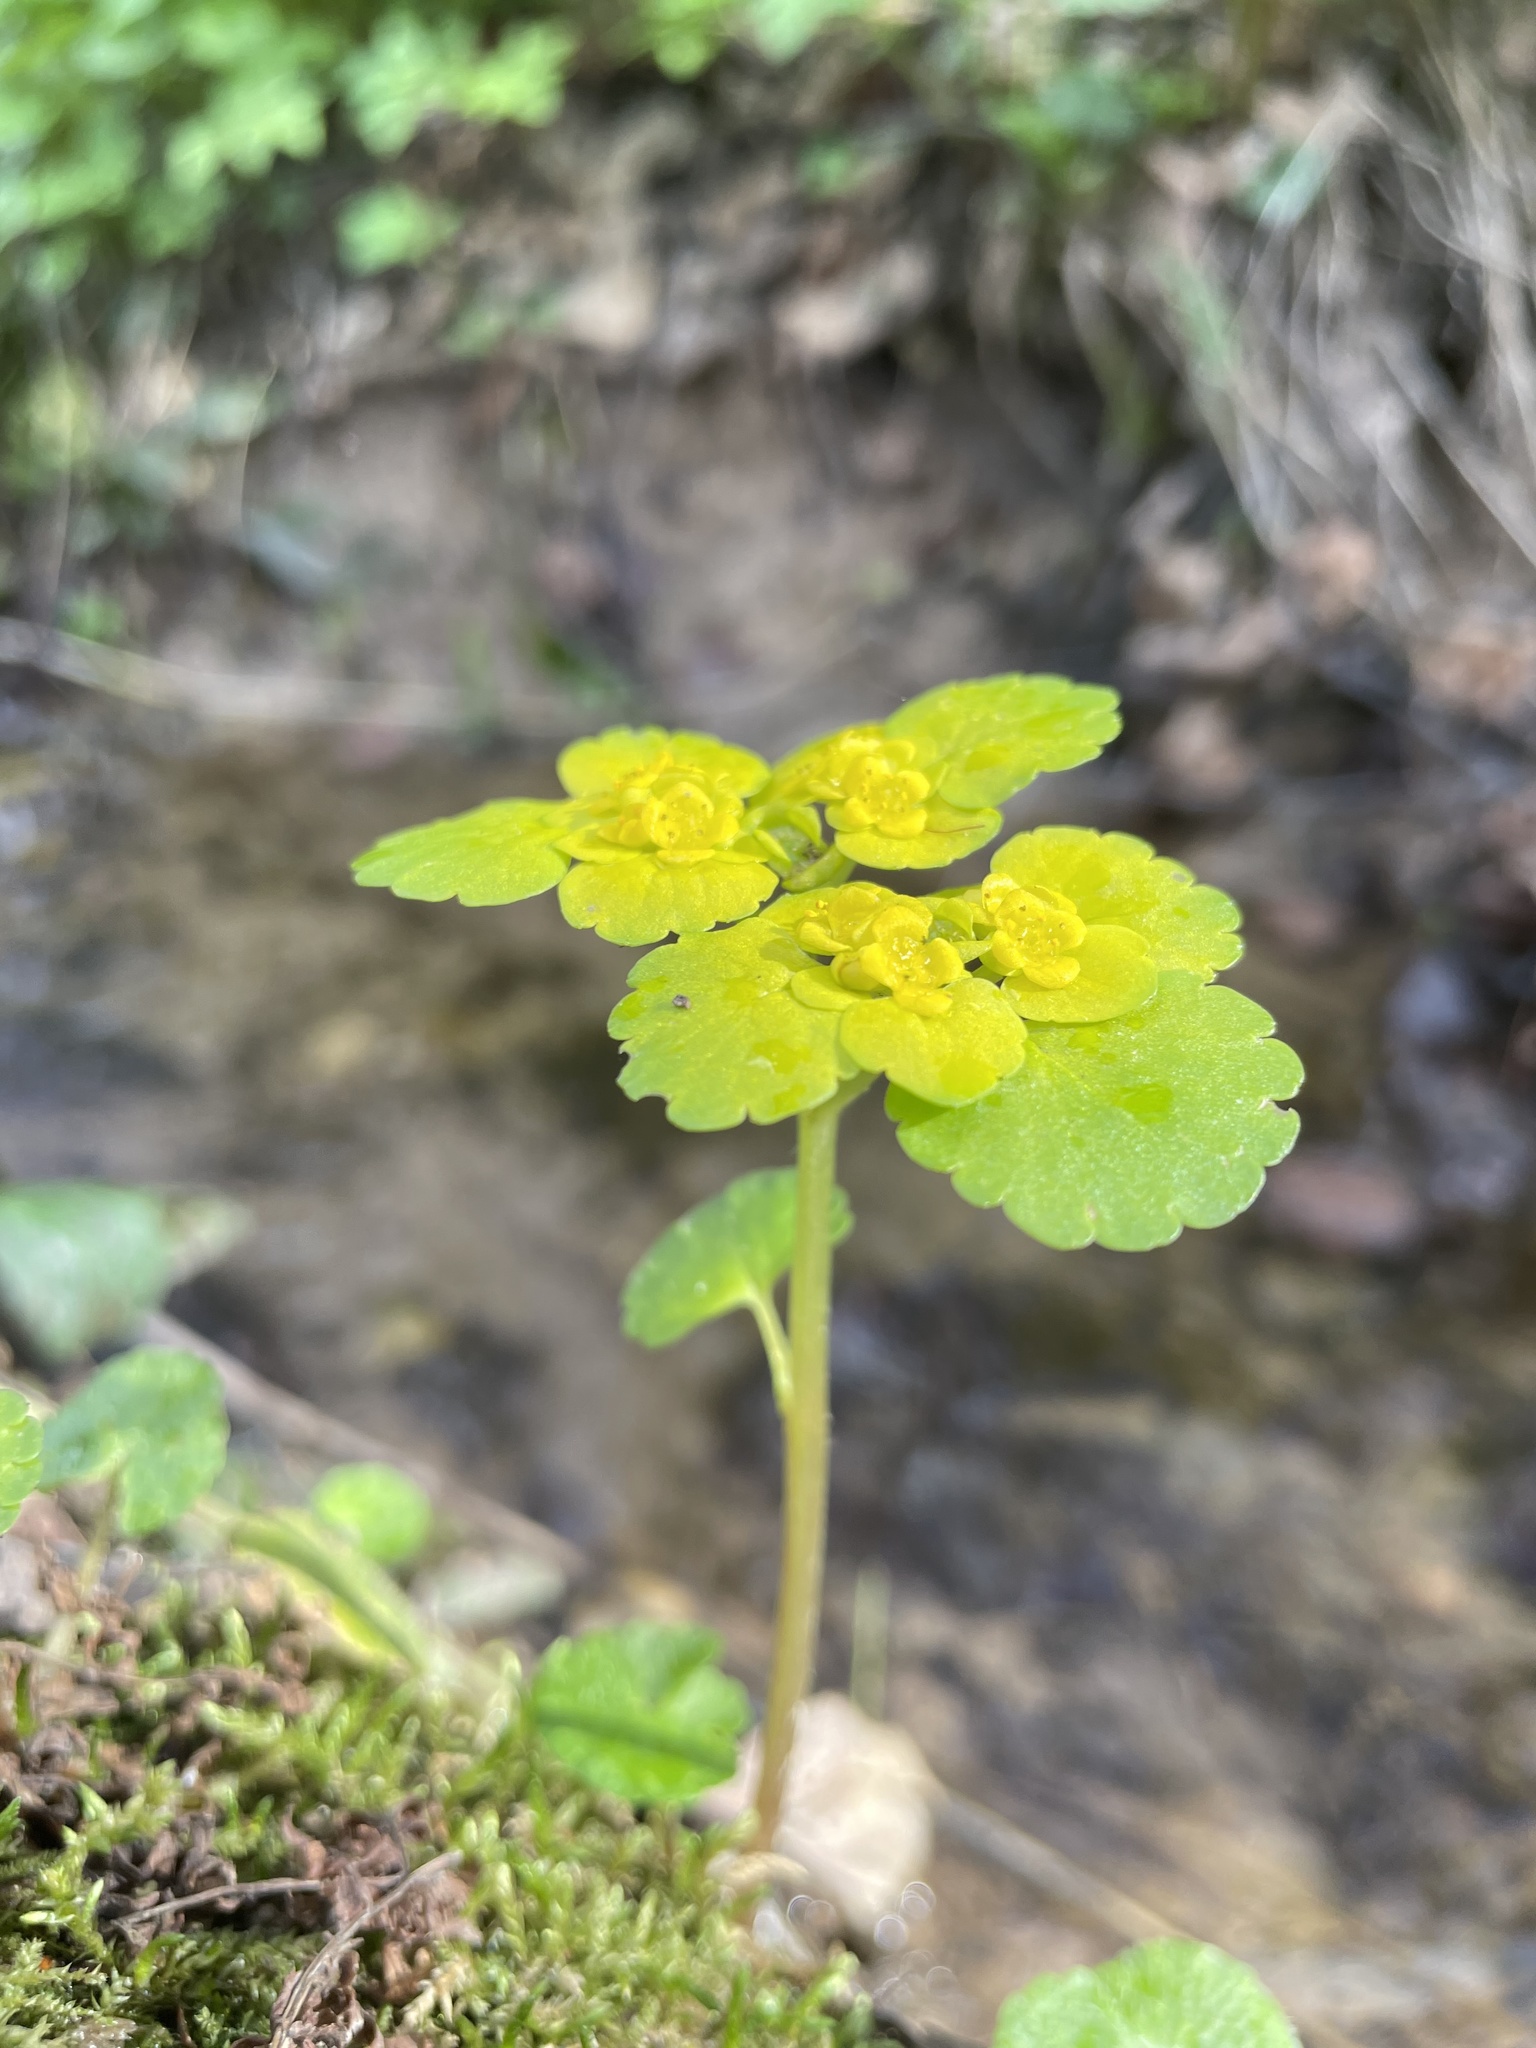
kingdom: Plantae
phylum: Tracheophyta
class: Magnoliopsida
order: Saxifragales
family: Saxifragaceae
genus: Chrysosplenium
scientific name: Chrysosplenium alternifolium
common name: Alternate-leaved golden-saxifrage
